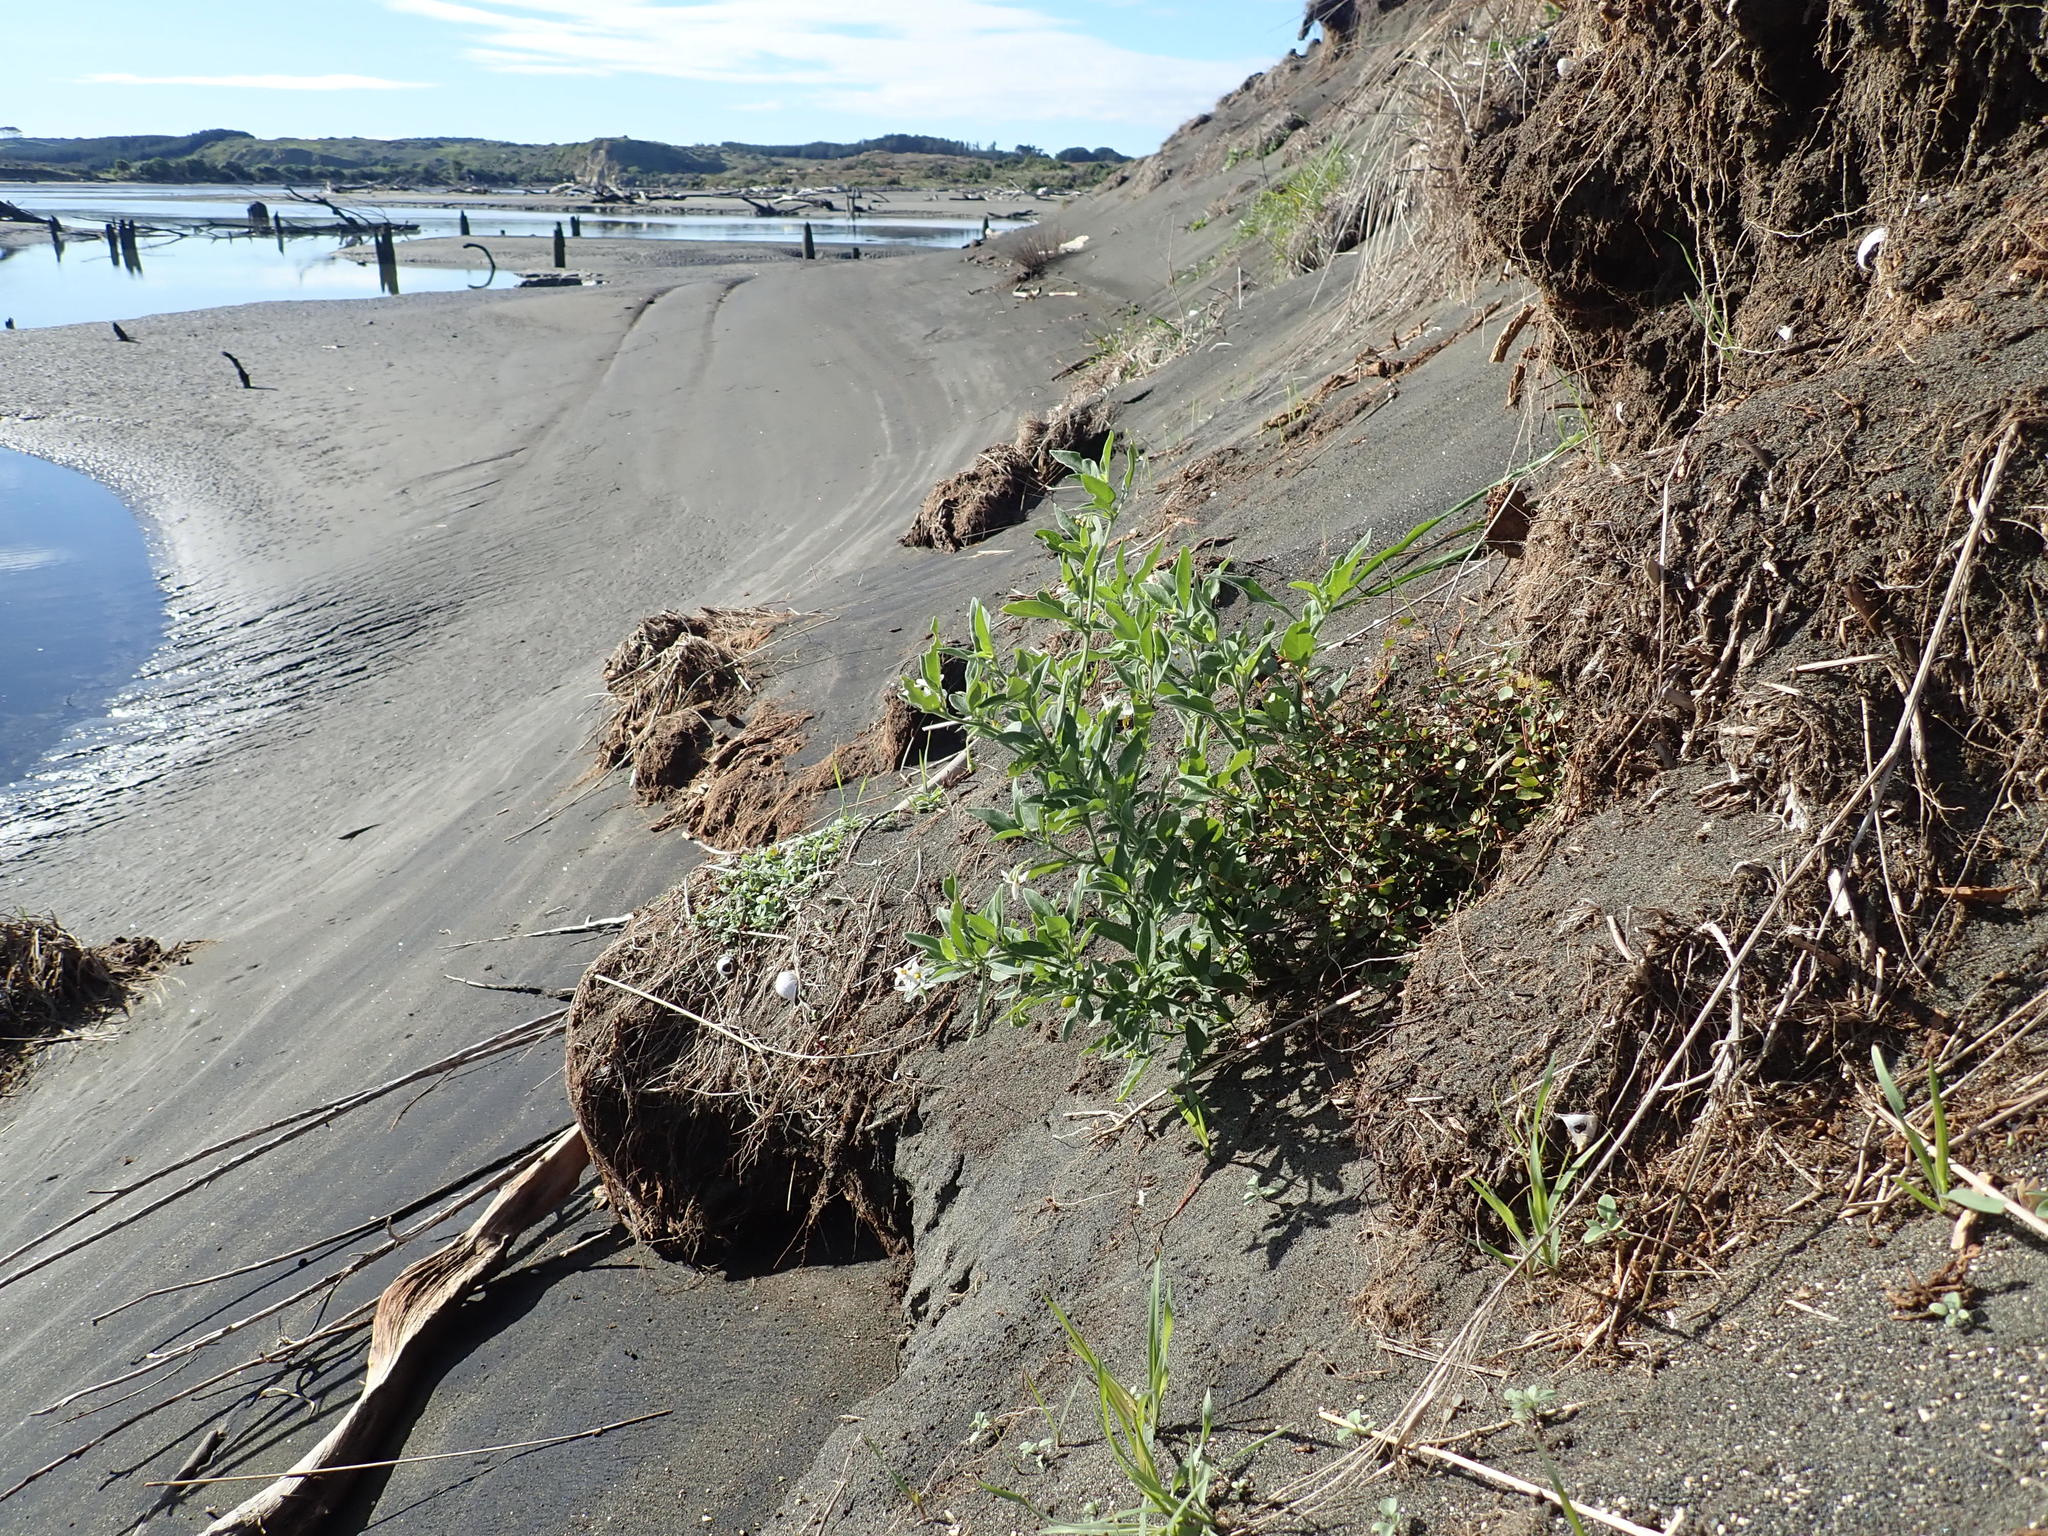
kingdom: Plantae
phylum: Tracheophyta
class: Magnoliopsida
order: Solanales
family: Solanaceae
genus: Solanum
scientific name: Solanum chenopodioides
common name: Tall nightshade
